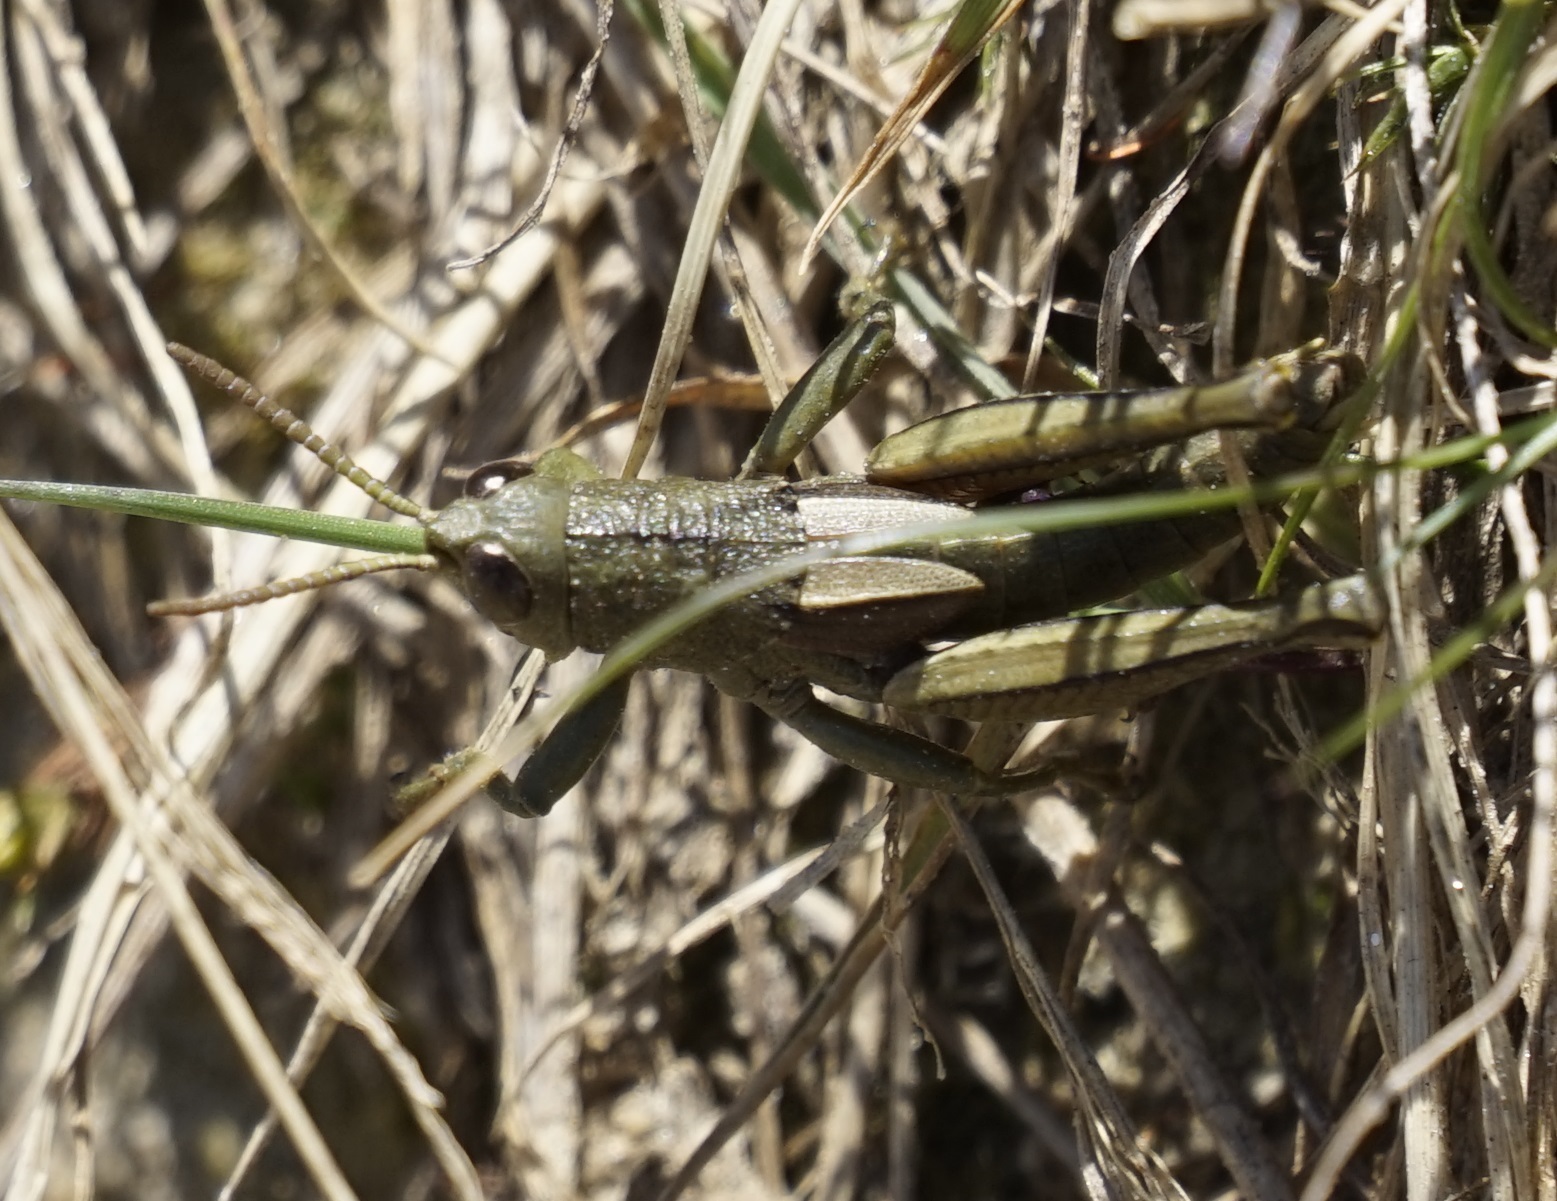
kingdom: Animalia
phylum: Arthropoda
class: Insecta
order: Orthoptera
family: Acrididae
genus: Percassa
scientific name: Percassa rugifrons
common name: Mountain grasshopper
